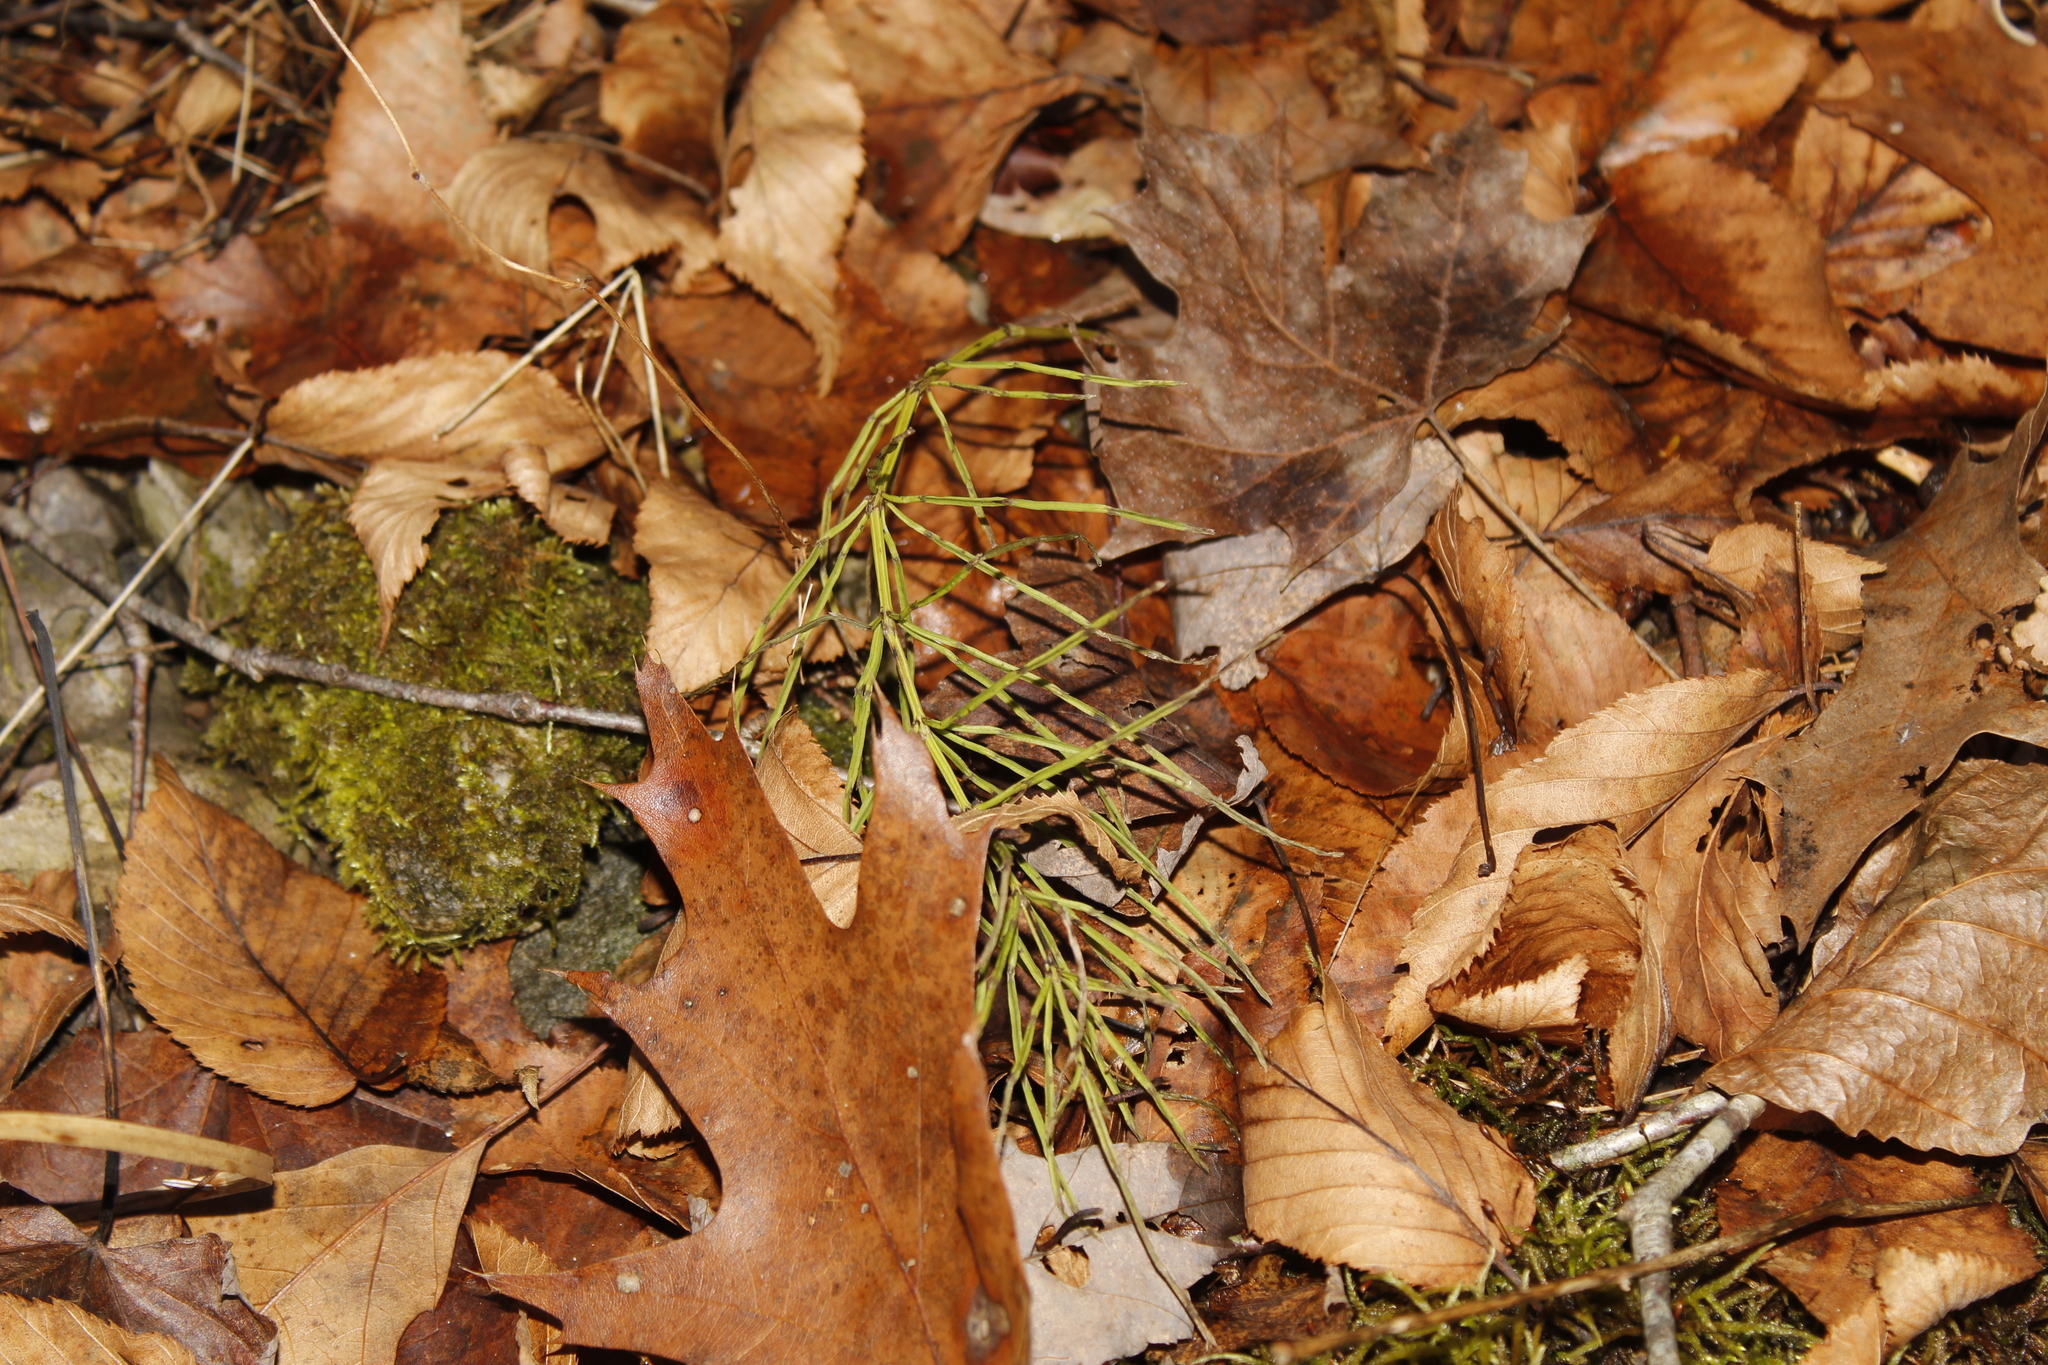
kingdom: Plantae
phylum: Tracheophyta
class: Polypodiopsida
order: Equisetales
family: Equisetaceae
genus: Equisetum
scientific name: Equisetum arvense
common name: Field horsetail
